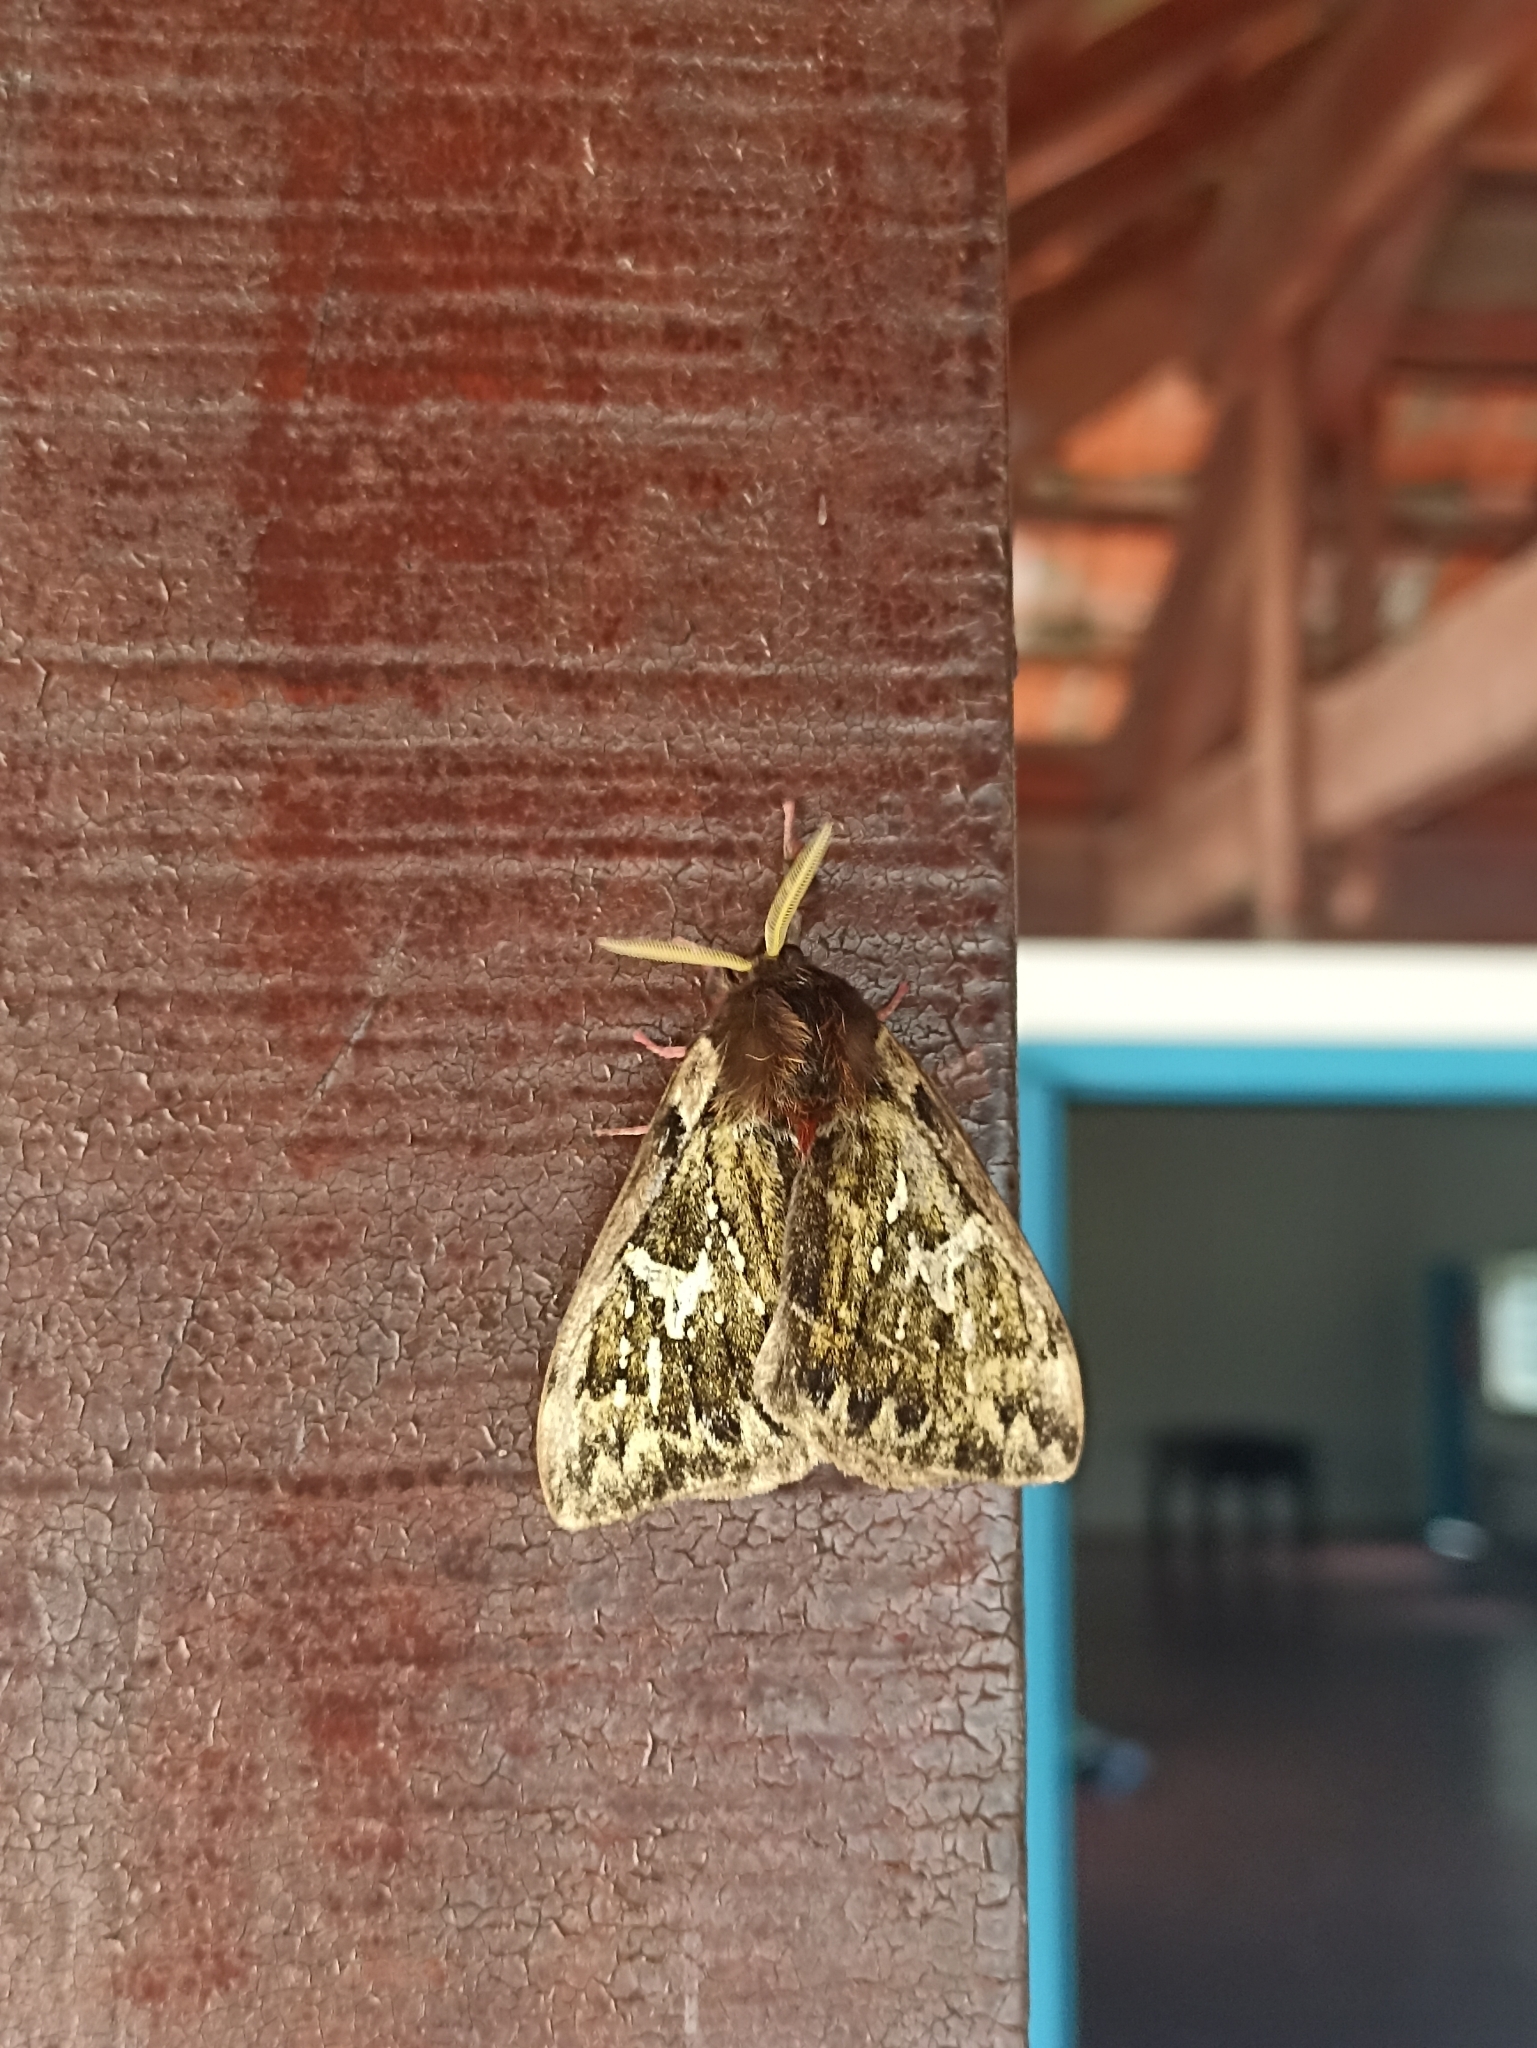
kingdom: Animalia
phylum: Arthropoda
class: Insecta
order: Lepidoptera
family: Saturniidae
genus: Dirphiopsis
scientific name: Dirphiopsis epiolina
